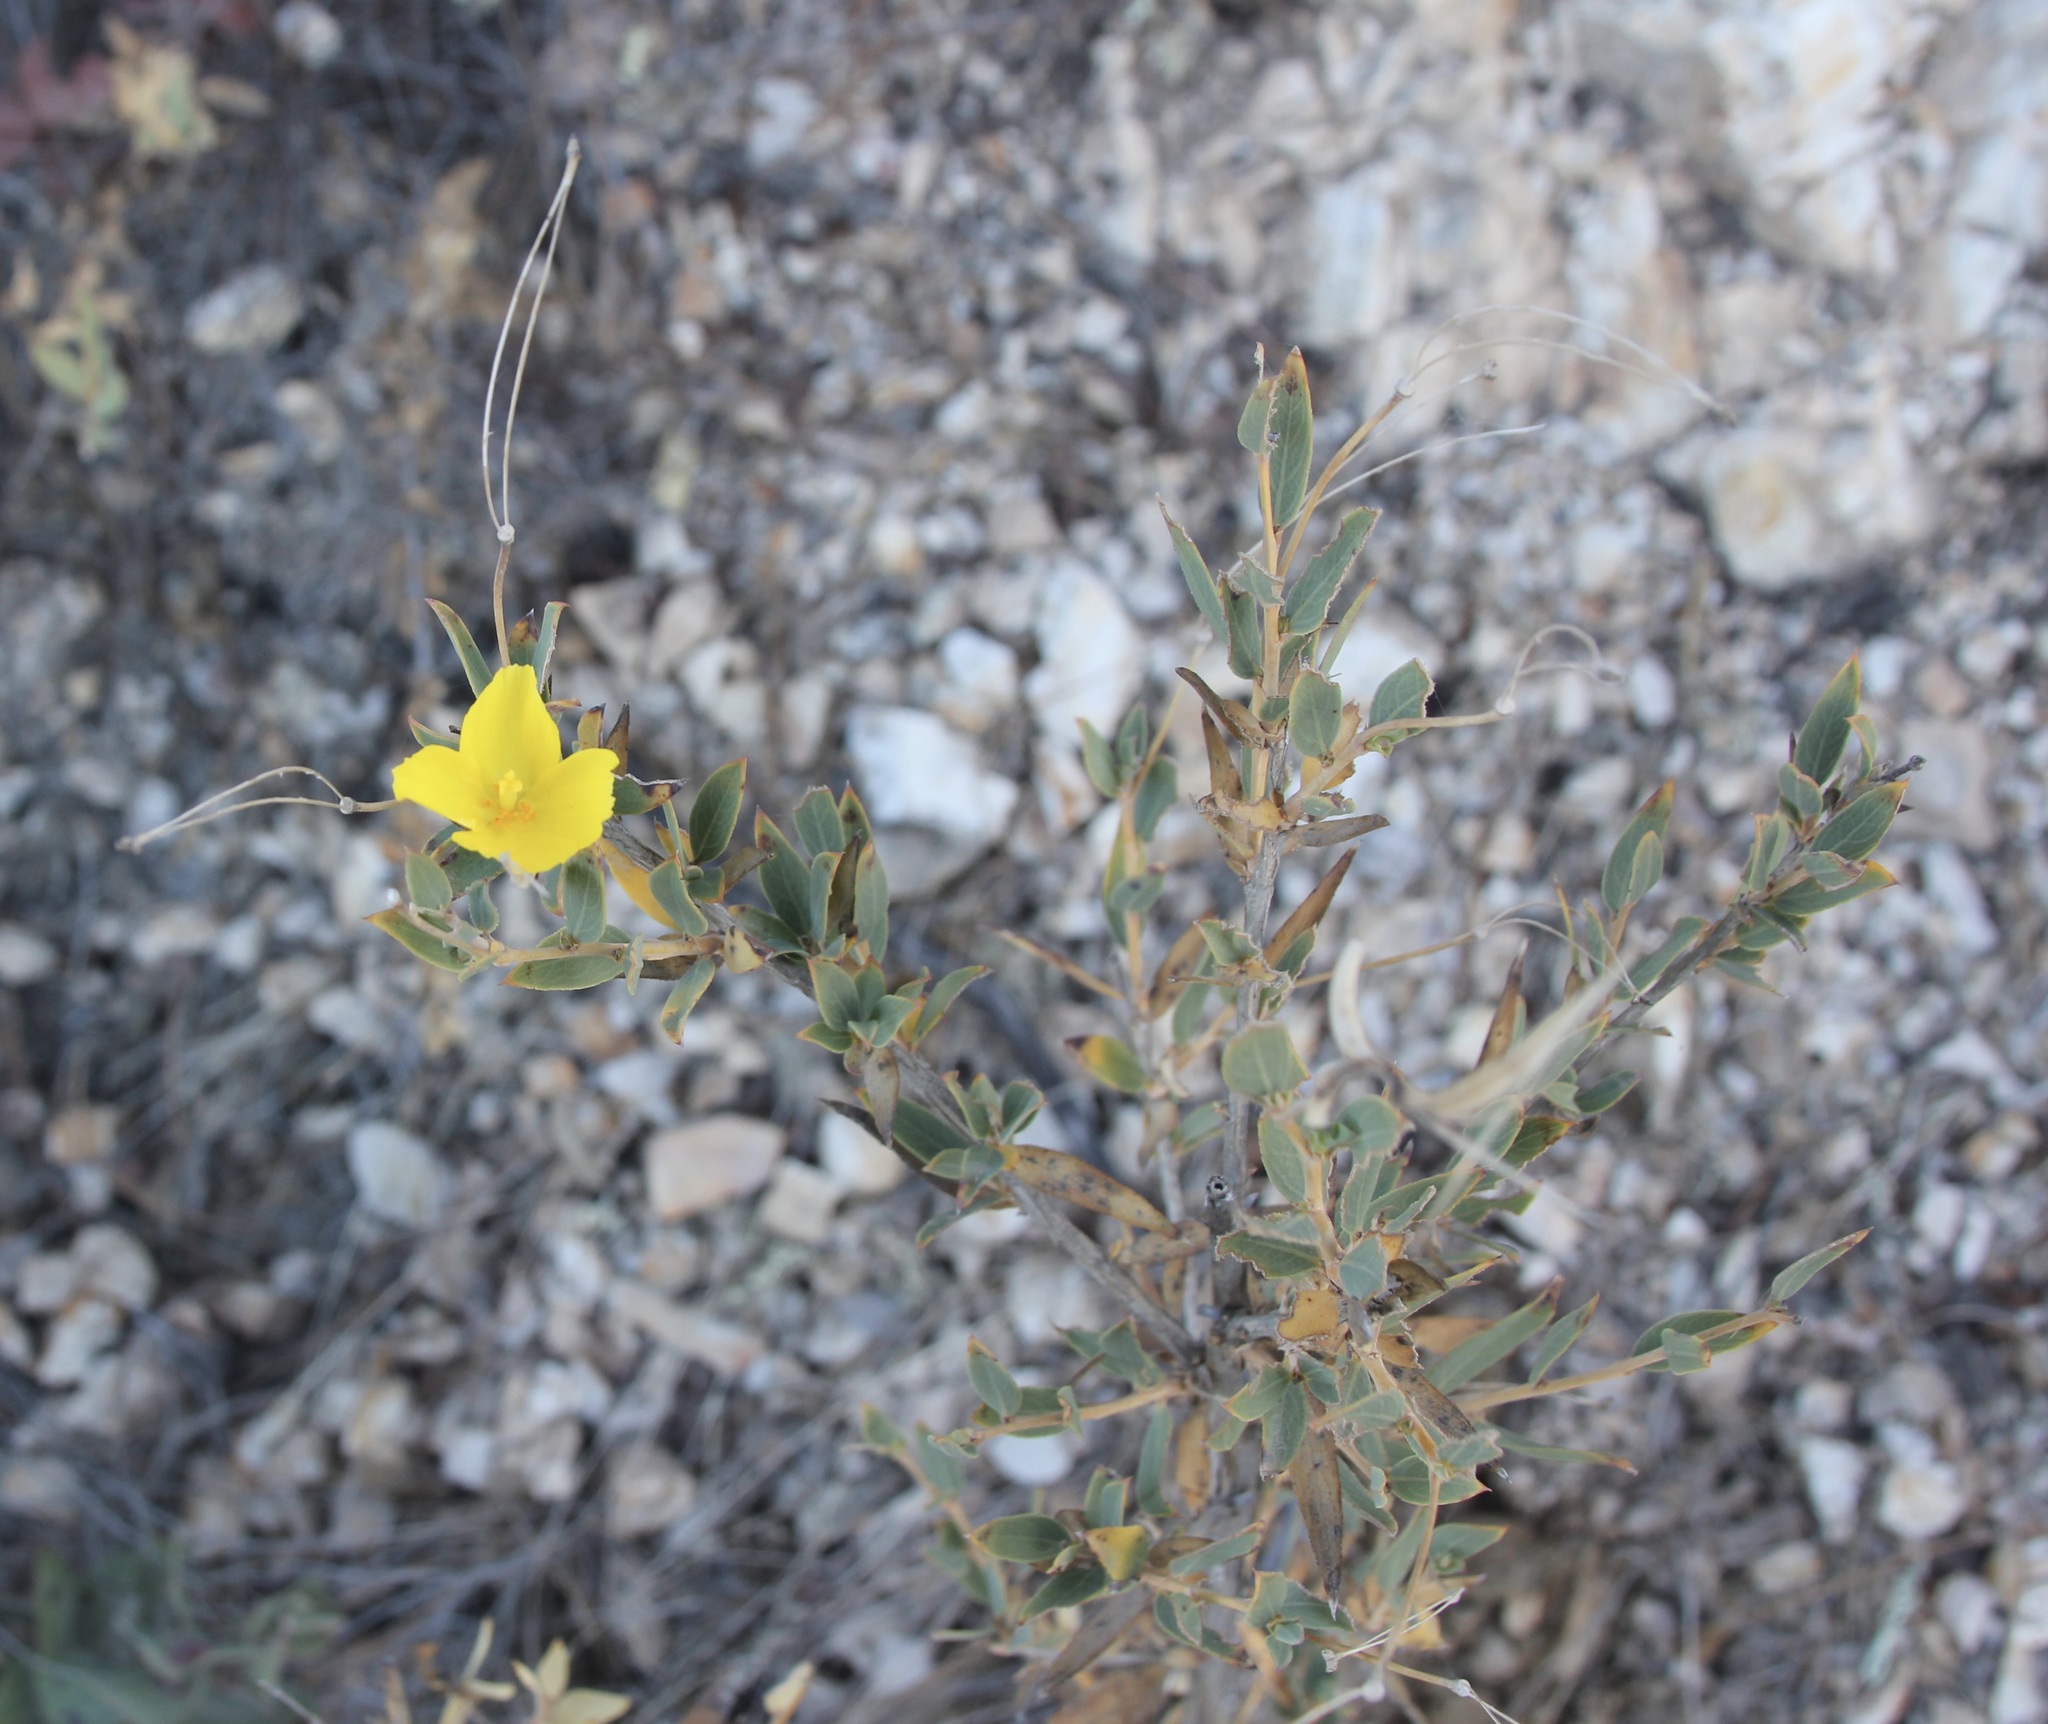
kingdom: Plantae
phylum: Tracheophyta
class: Magnoliopsida
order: Ranunculales
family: Papaveraceae
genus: Dendromecon
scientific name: Dendromecon rigida
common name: Tree poppy
